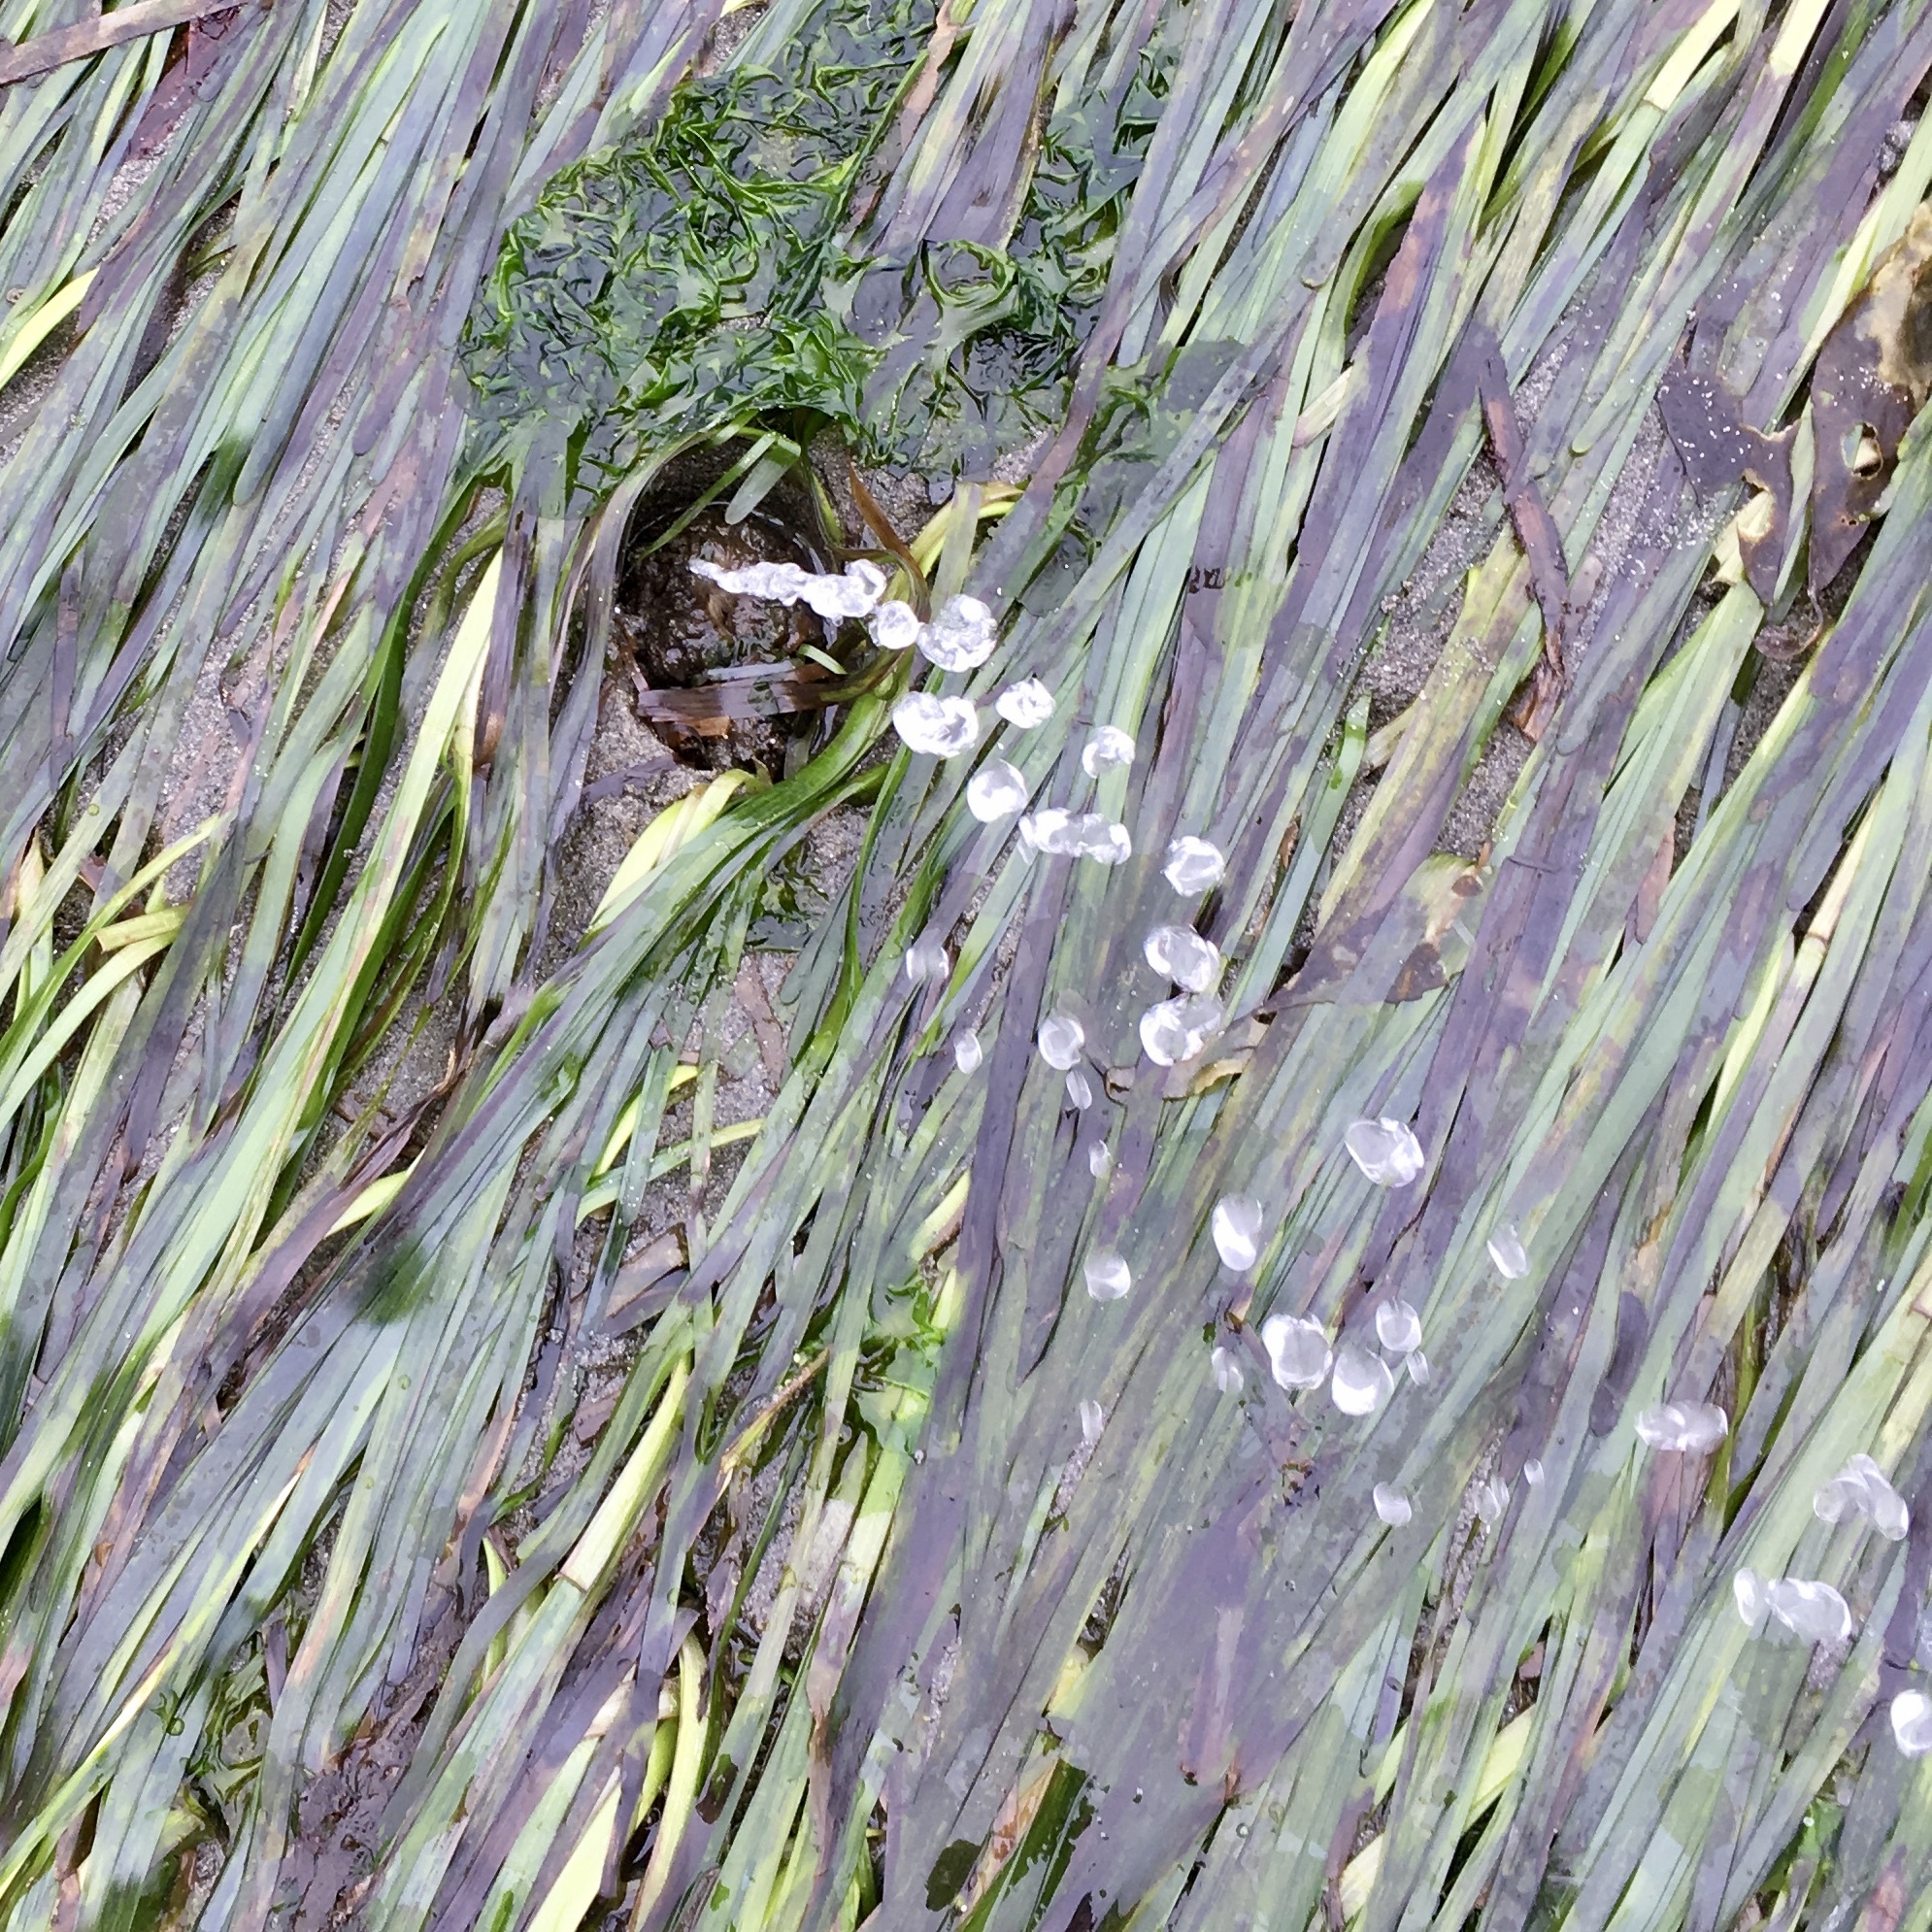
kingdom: Animalia
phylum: Mollusca
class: Bivalvia
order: Adapedonta
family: Hiatellidae
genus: Panopea
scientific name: Panopea generosa
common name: Geoduck
